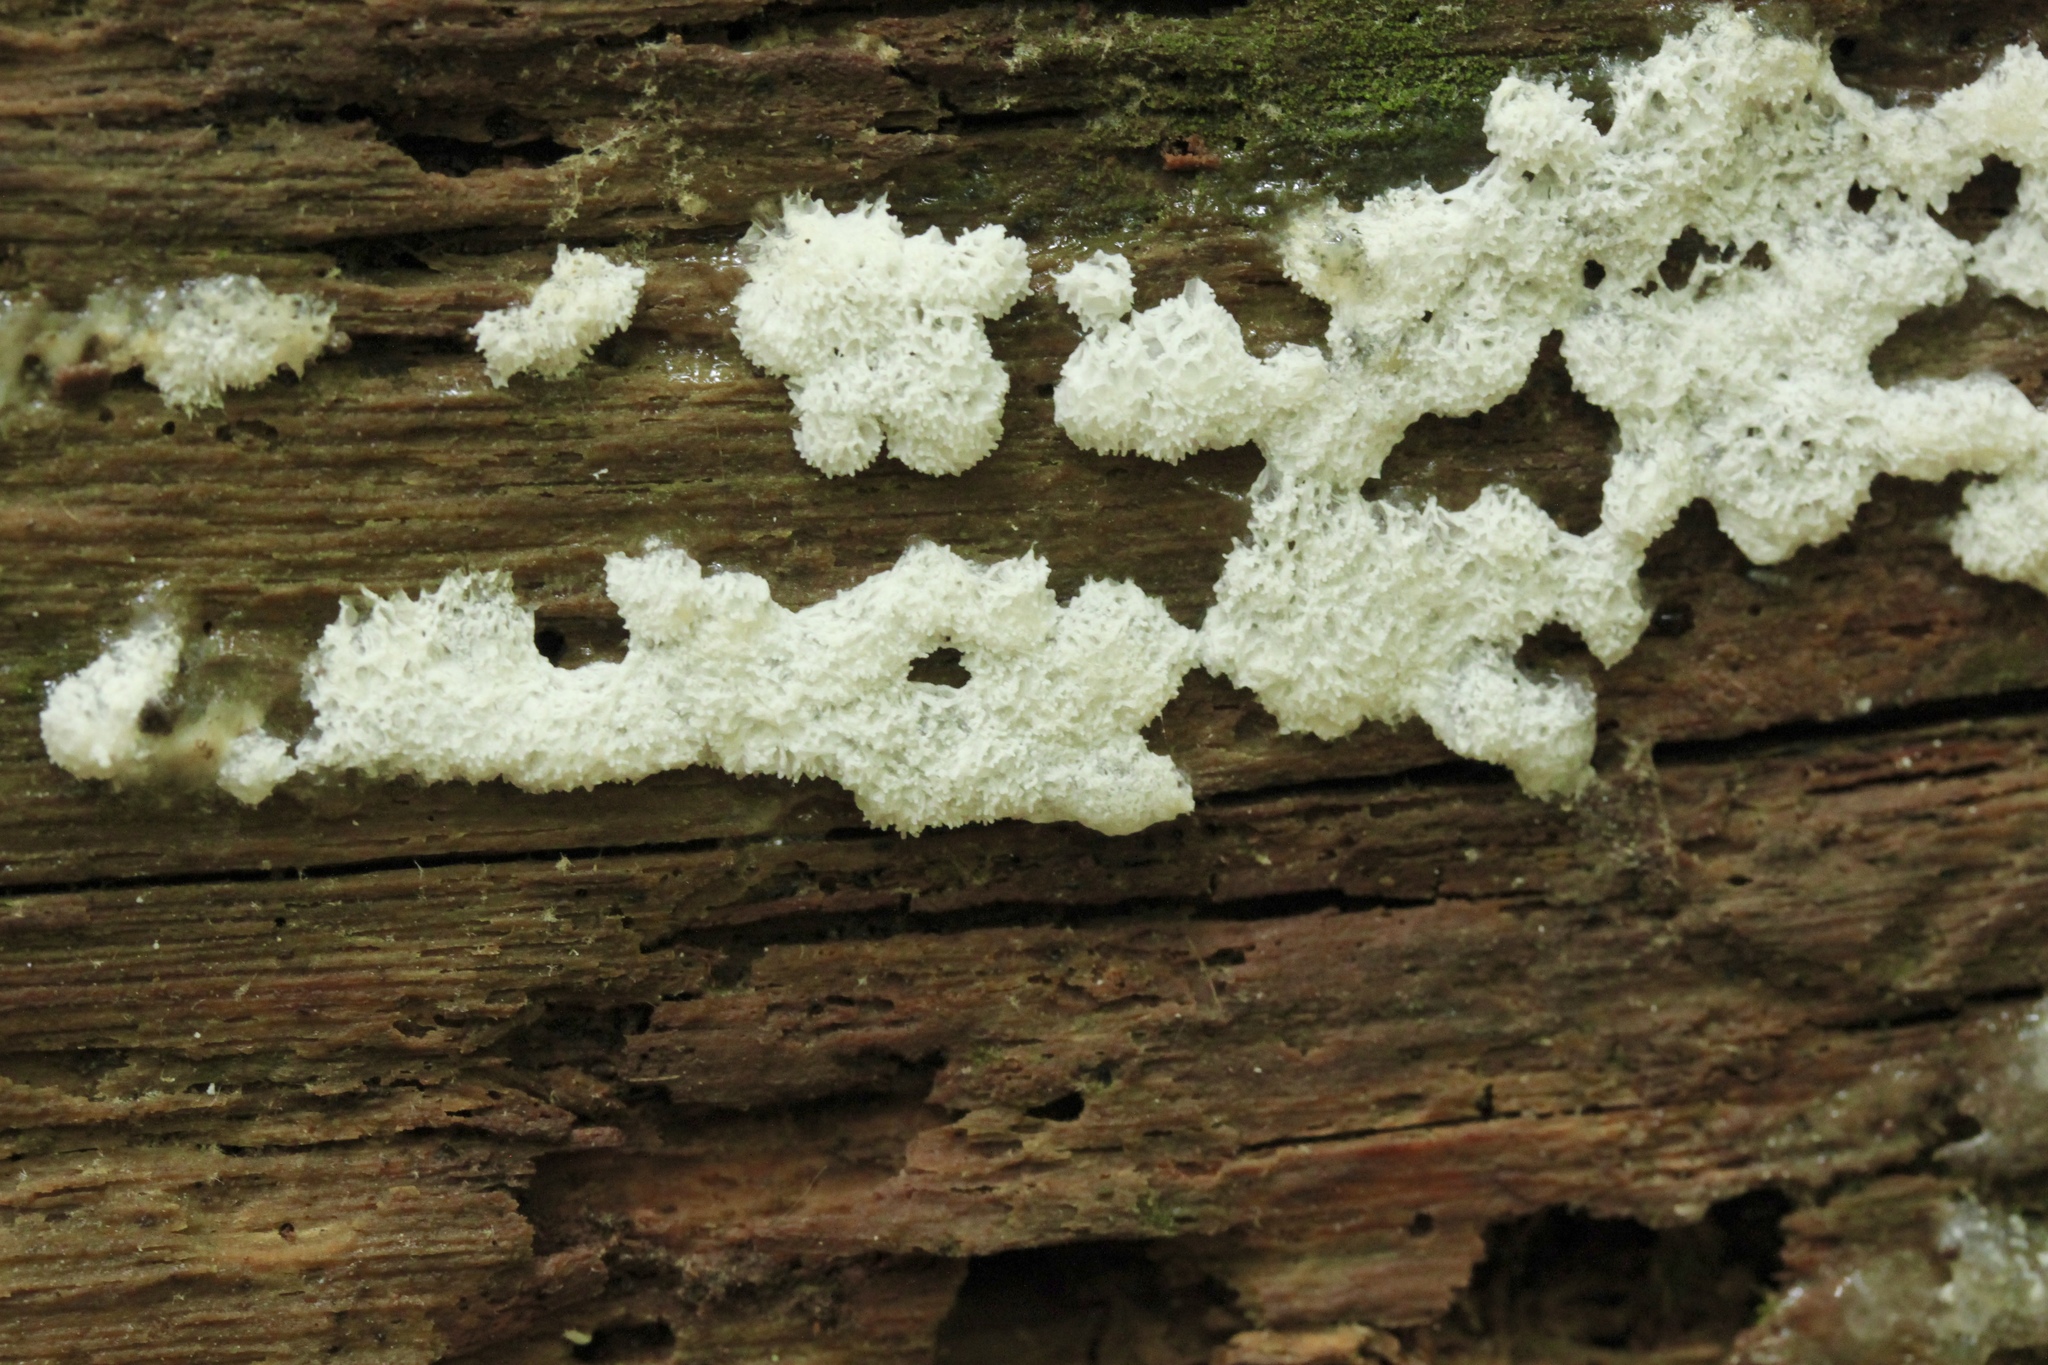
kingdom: Protozoa
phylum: Mycetozoa
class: Protosteliomycetes
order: Ceratiomyxales
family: Ceratiomyxaceae
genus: Ceratiomyxa
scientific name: Ceratiomyxa fruticulosa
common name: Honeycomb coral slime mold
